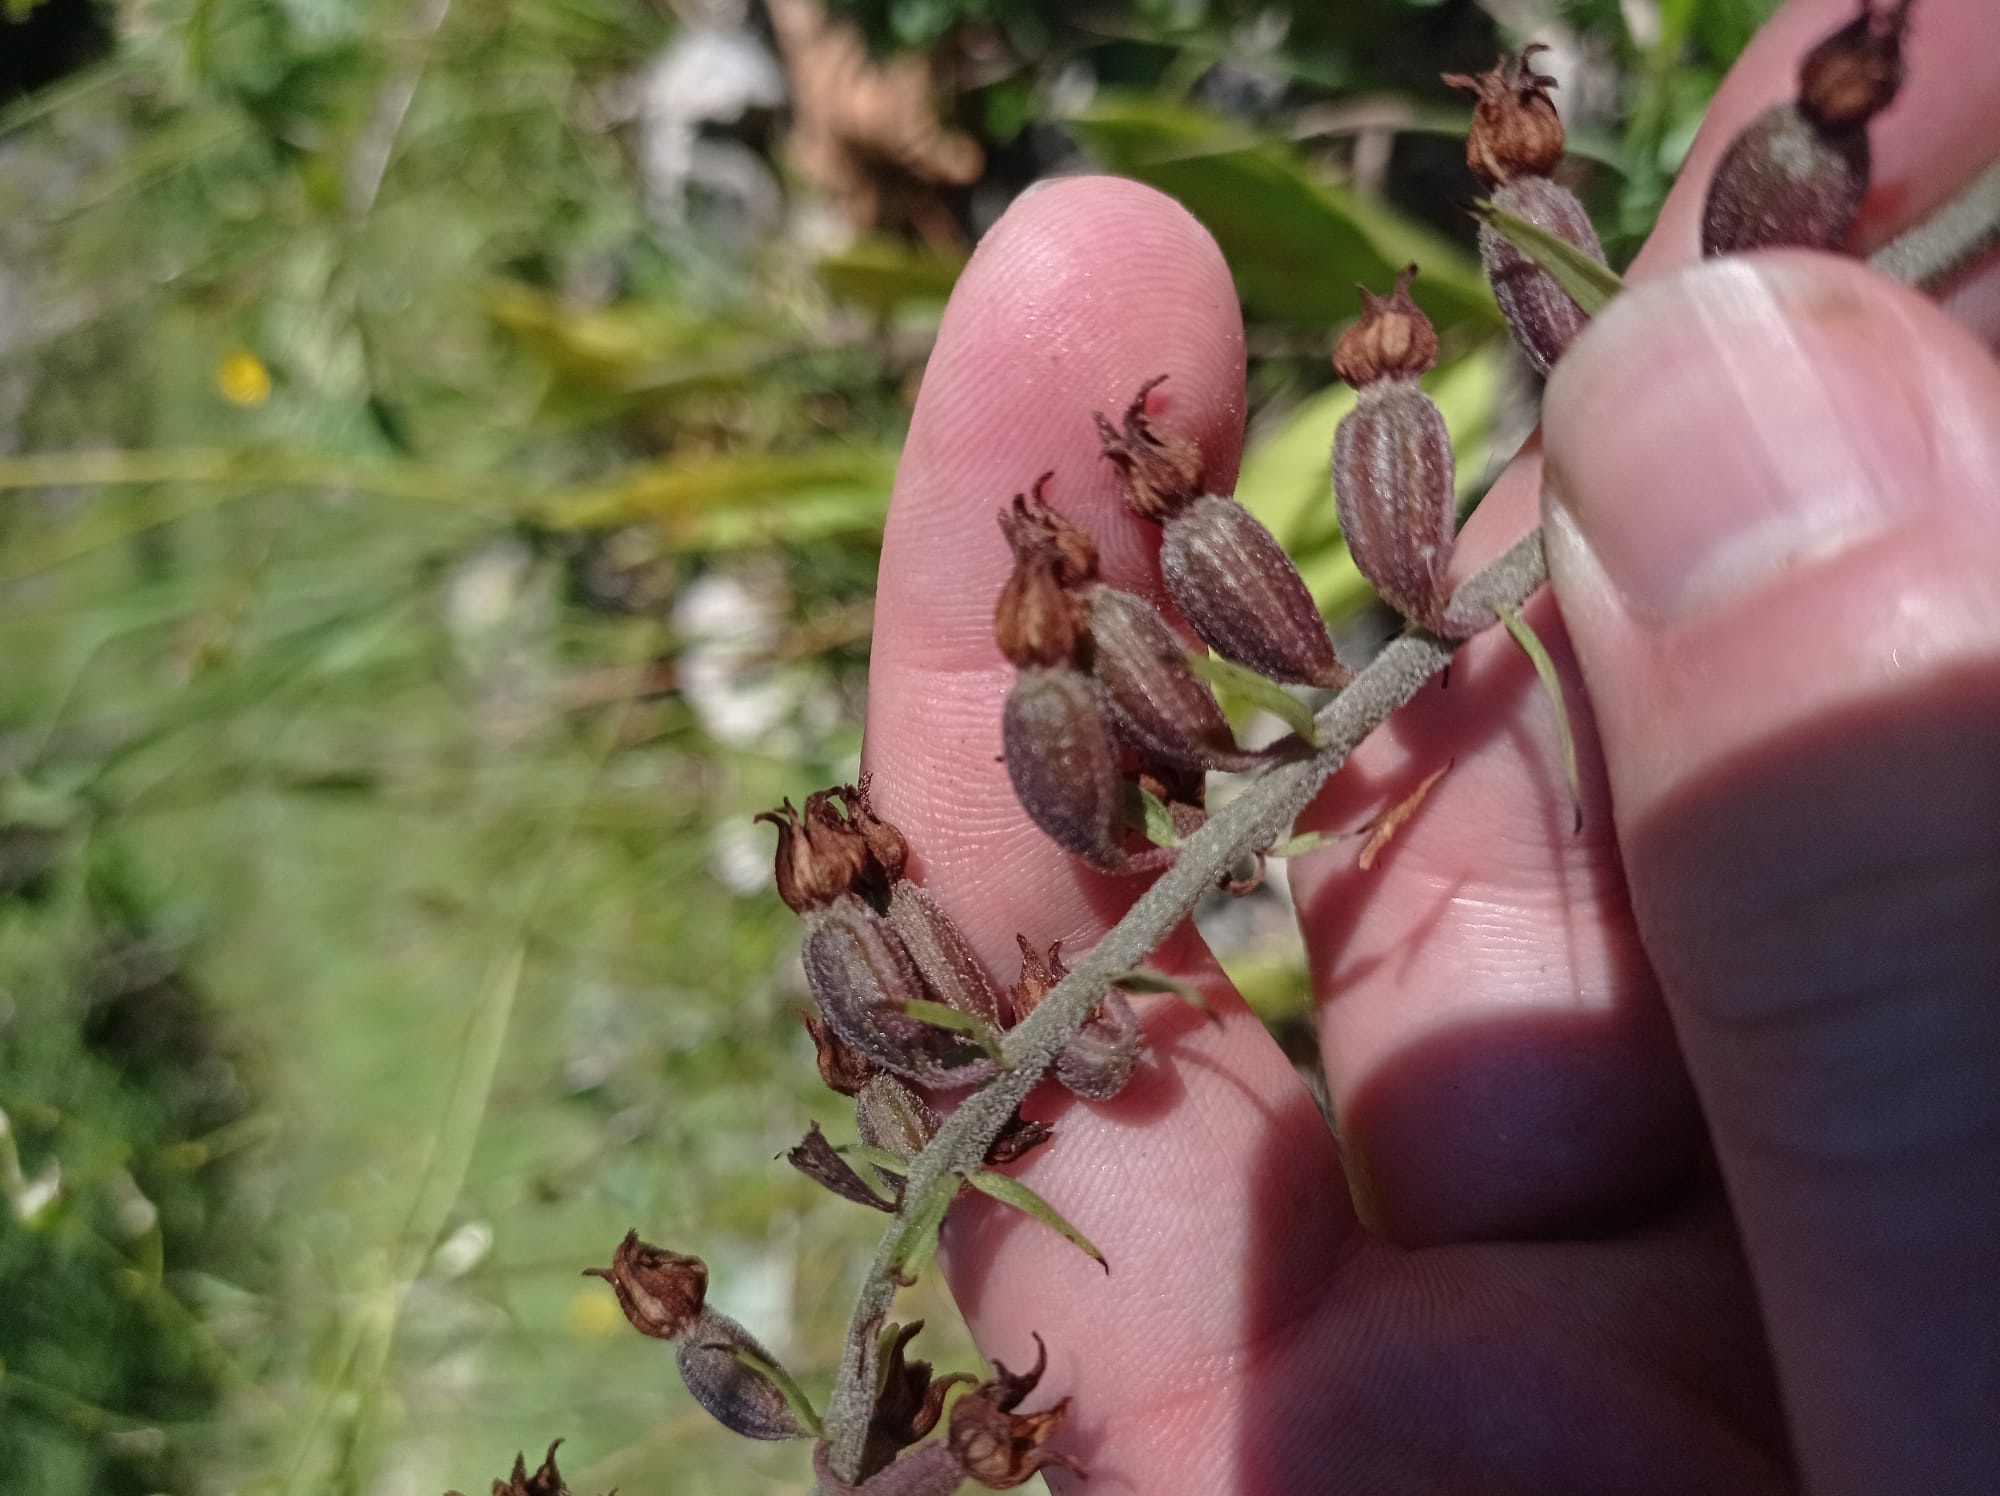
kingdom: Plantae
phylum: Tracheophyta
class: Liliopsida
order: Asparagales
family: Orchidaceae
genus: Epipactis
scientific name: Epipactis atrorubens
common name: Dark-red helleborine
